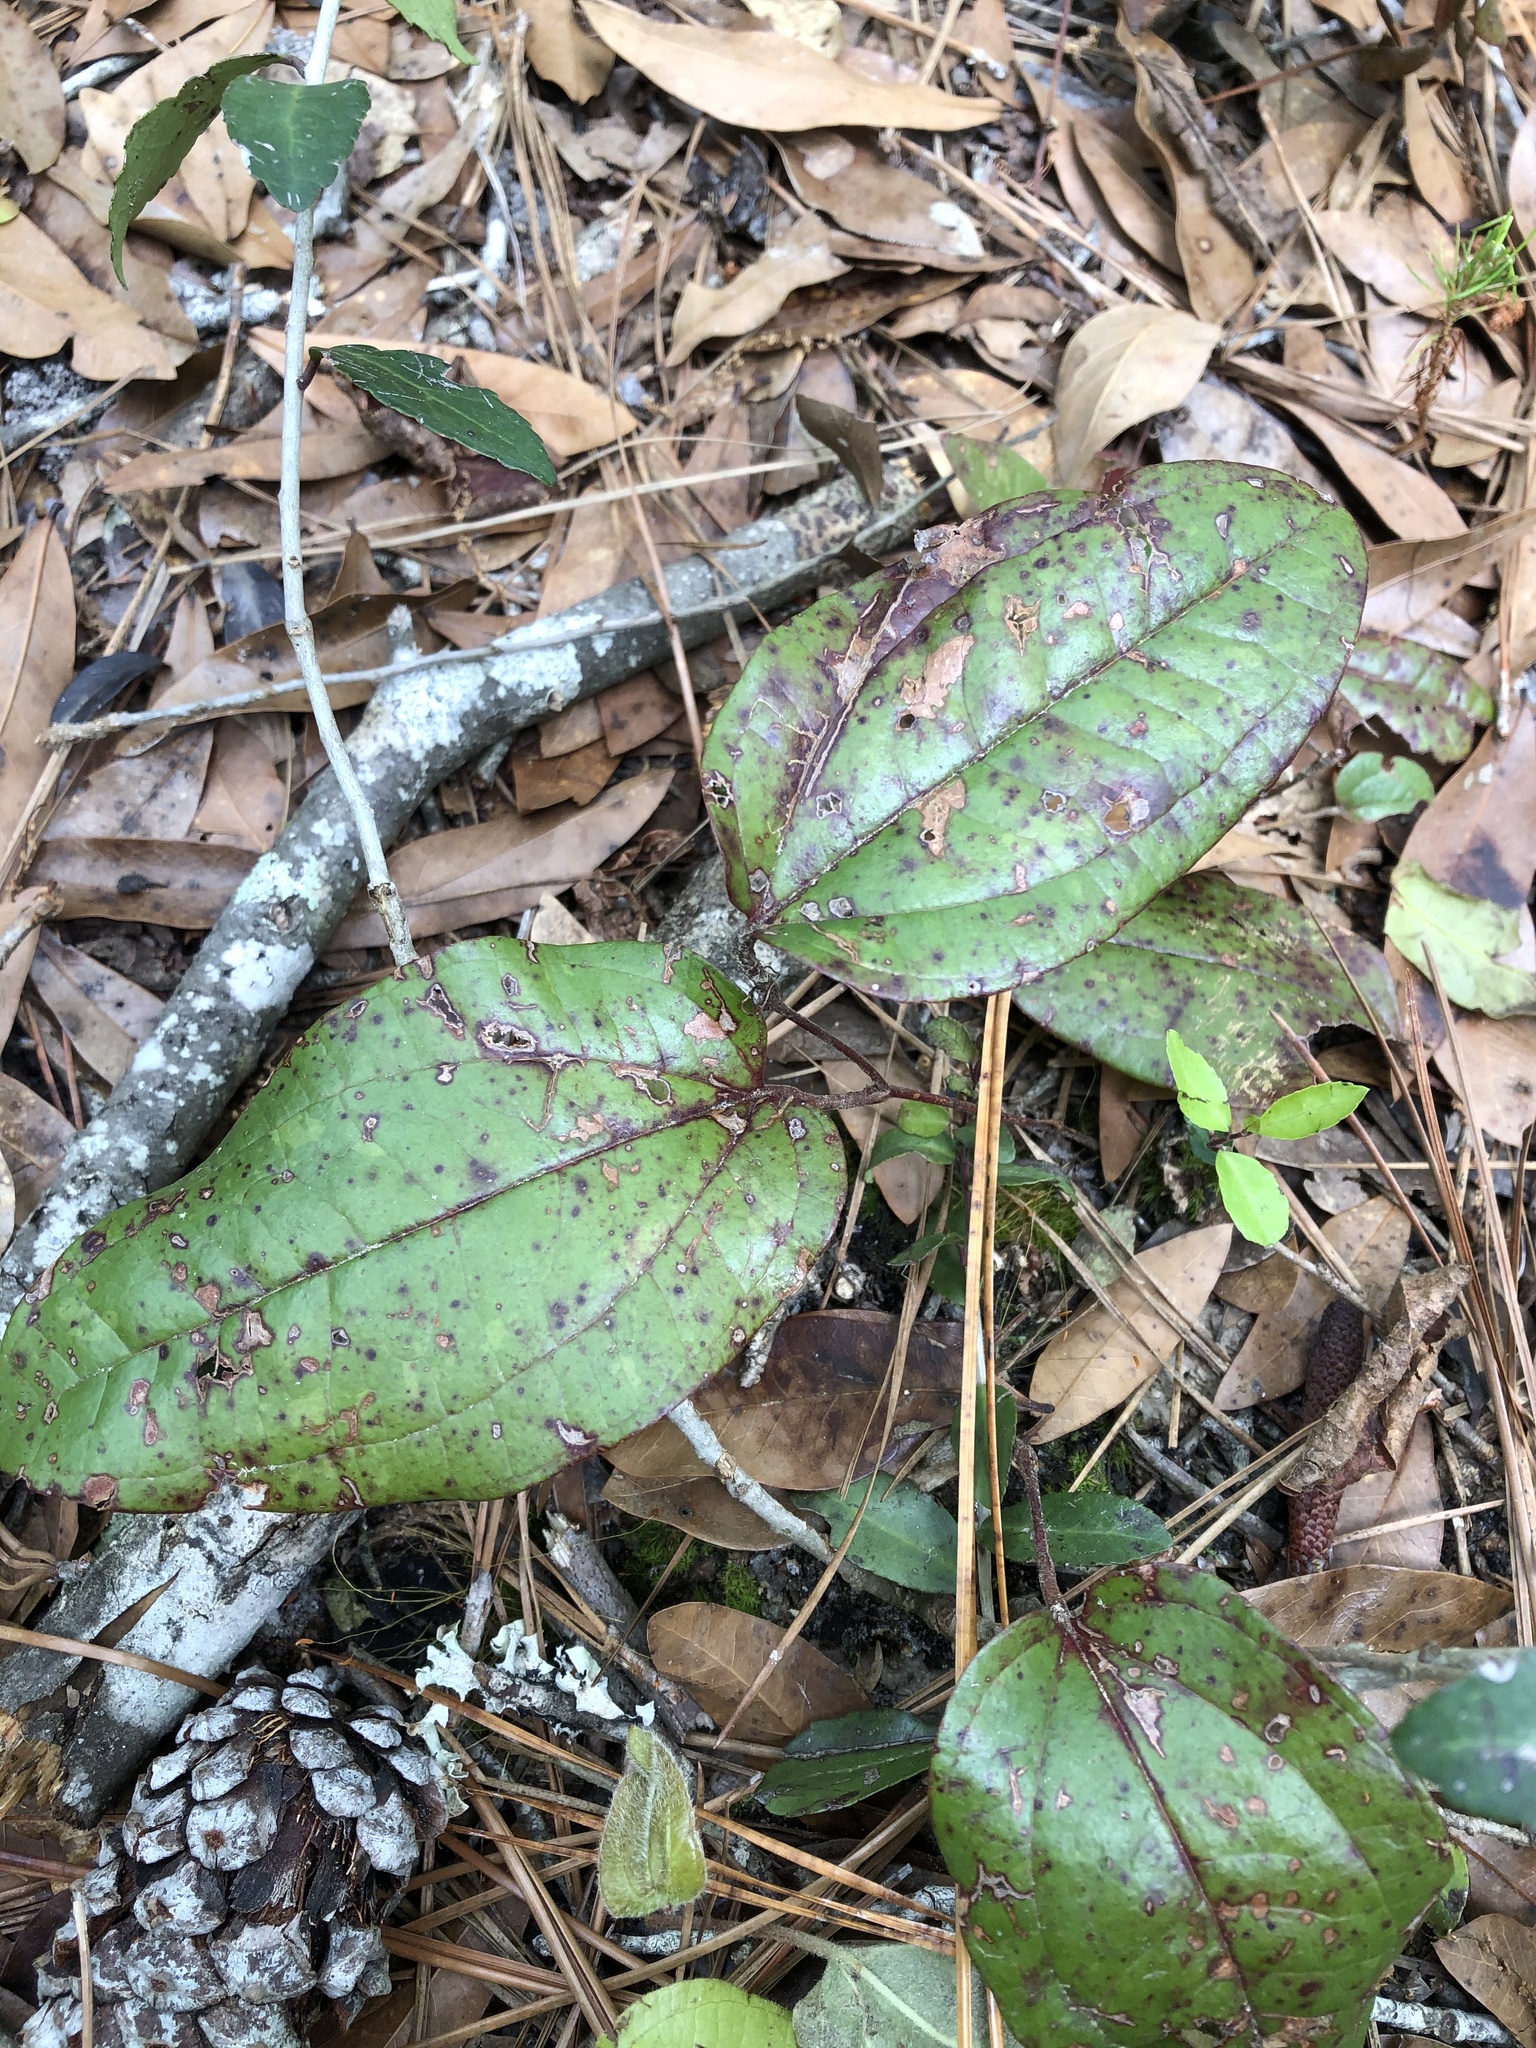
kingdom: Plantae
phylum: Tracheophyta
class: Liliopsida
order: Liliales
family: Smilacaceae
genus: Smilax
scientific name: Smilax pumila
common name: Sarsaparilla-vine
